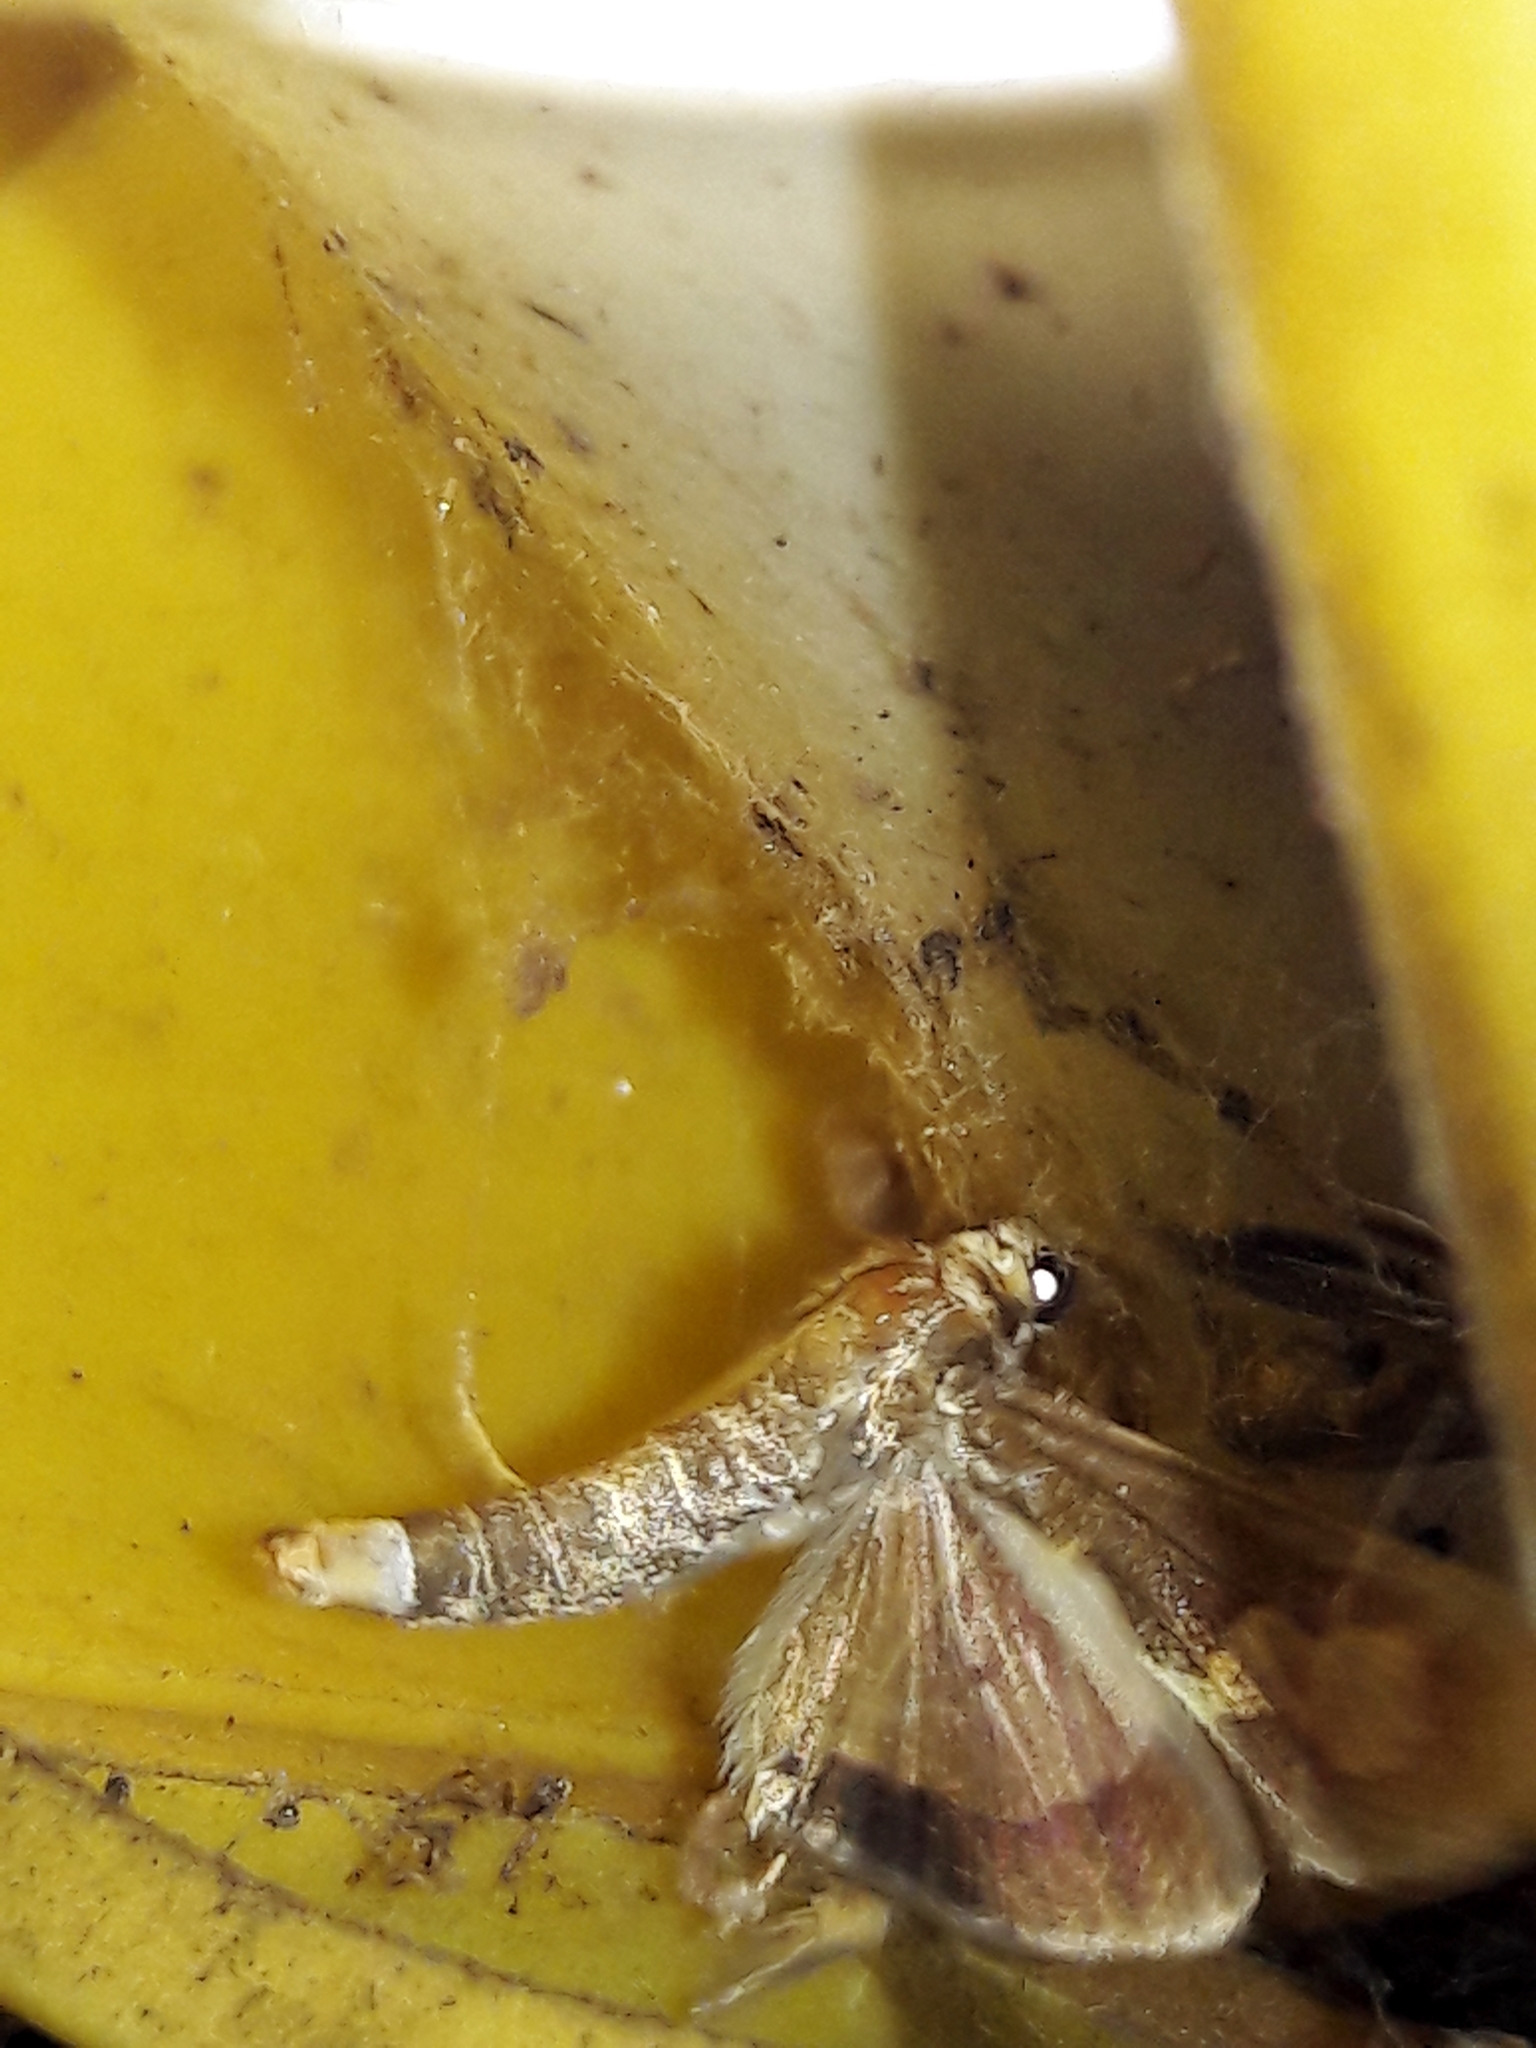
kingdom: Animalia
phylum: Arthropoda
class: Insecta
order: Lepidoptera
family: Crambidae
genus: Cryptographis
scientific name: Cryptographis nitidalis
